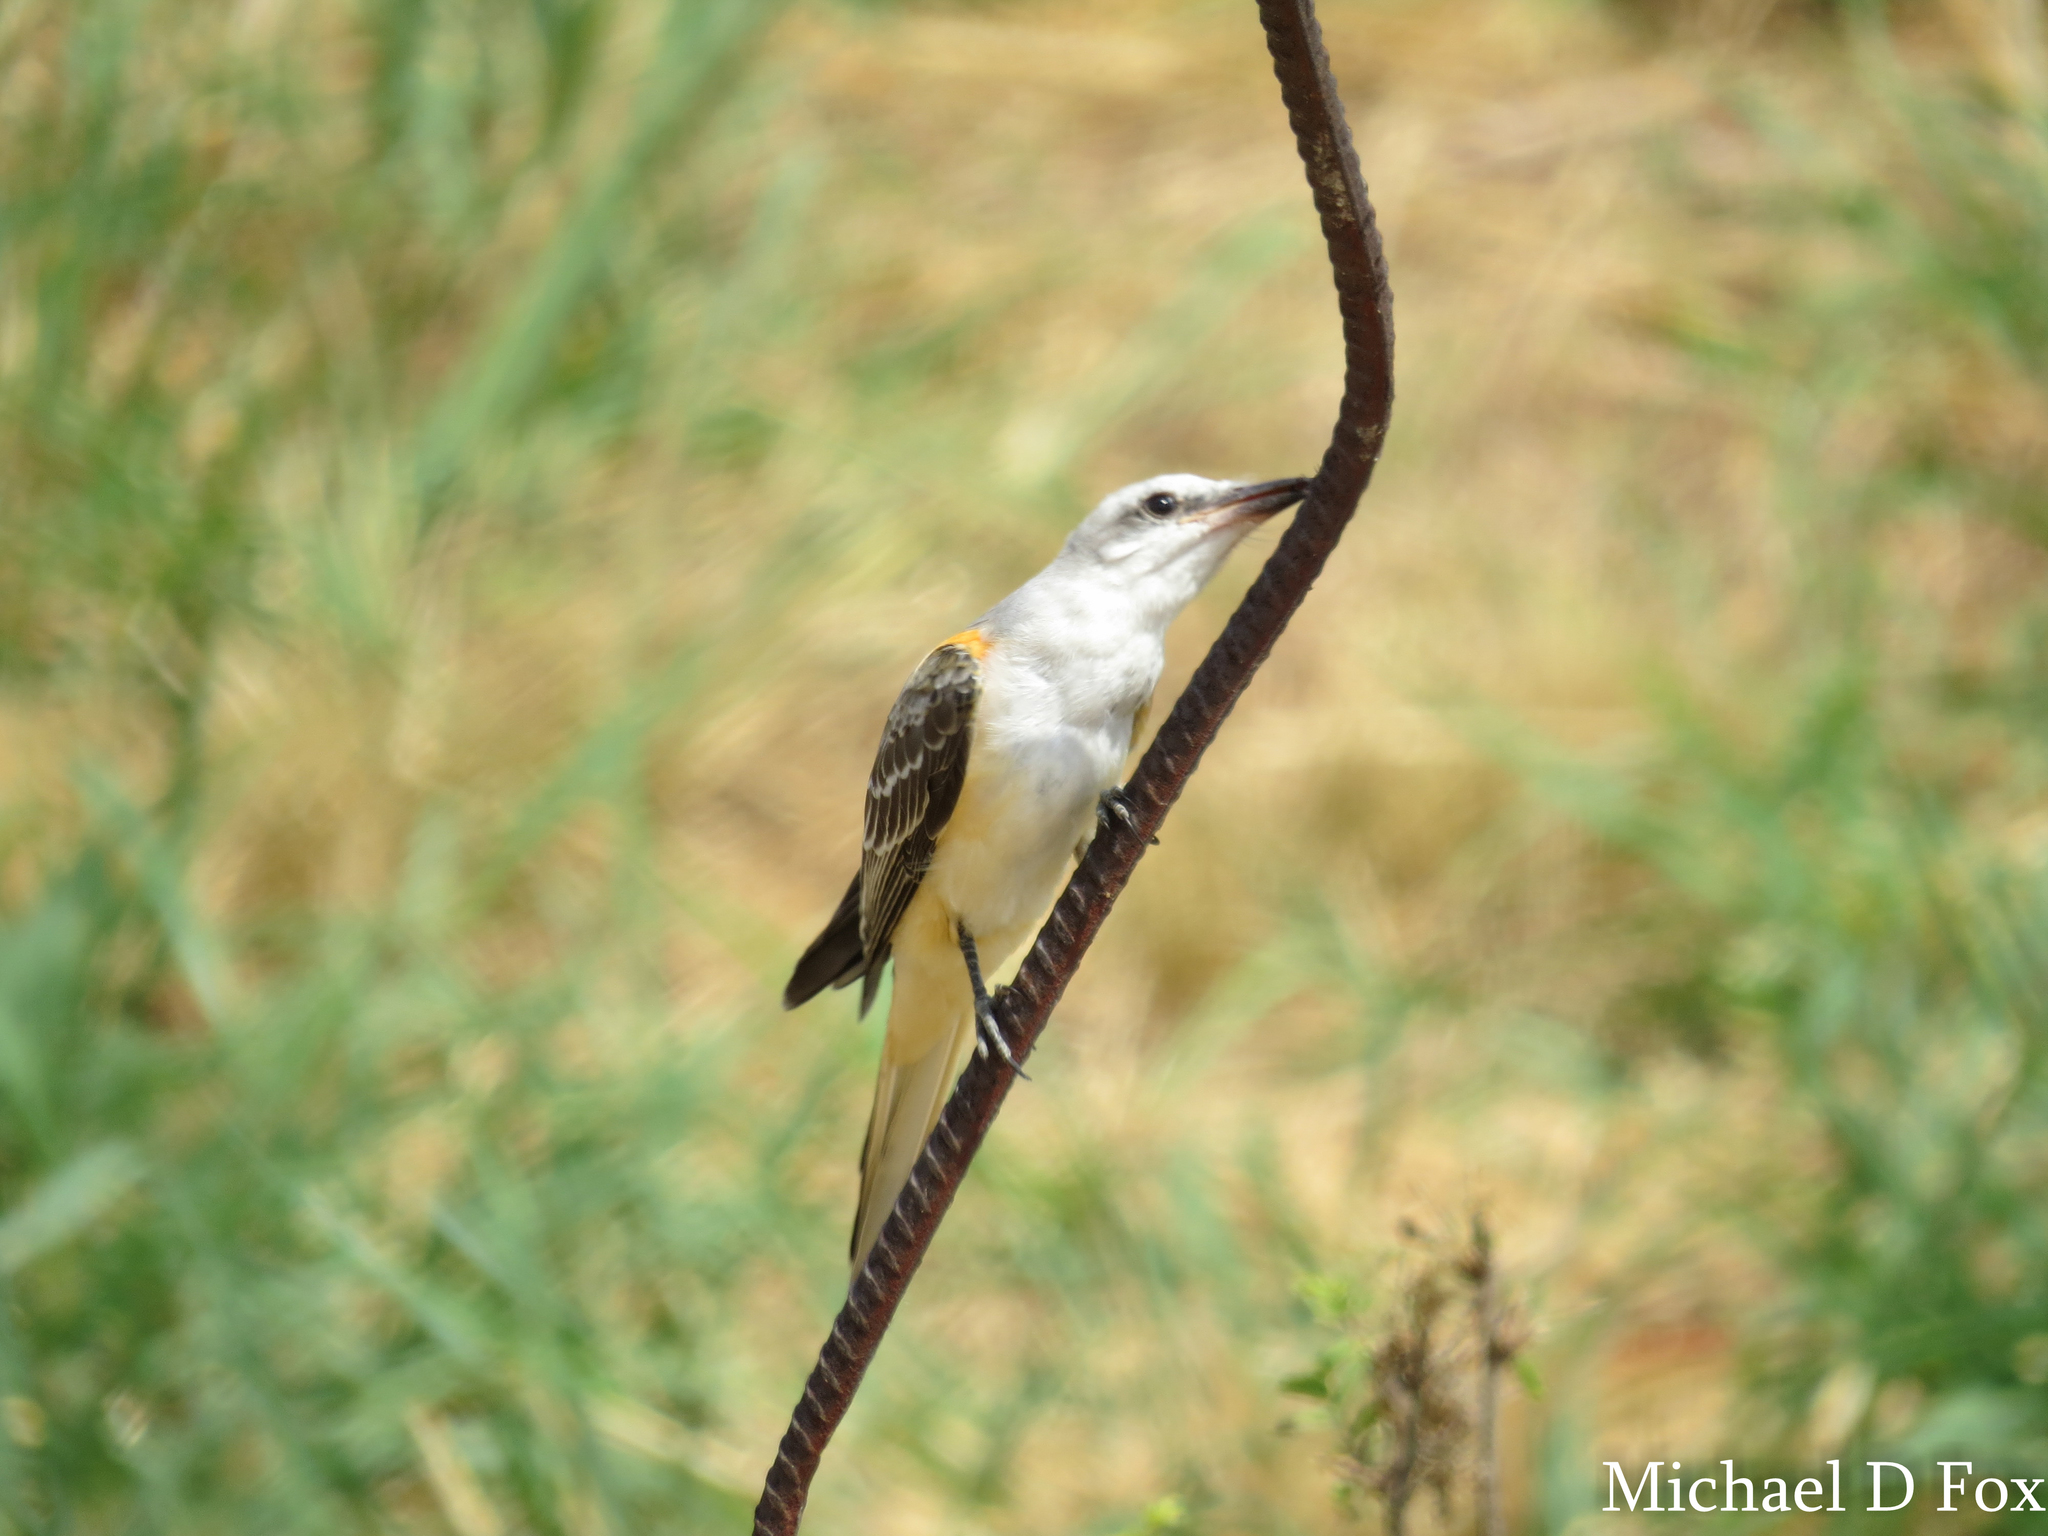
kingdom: Animalia
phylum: Chordata
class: Aves
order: Passeriformes
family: Tyrannidae
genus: Tyrannus
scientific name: Tyrannus forficatus
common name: Scissor-tailed flycatcher
